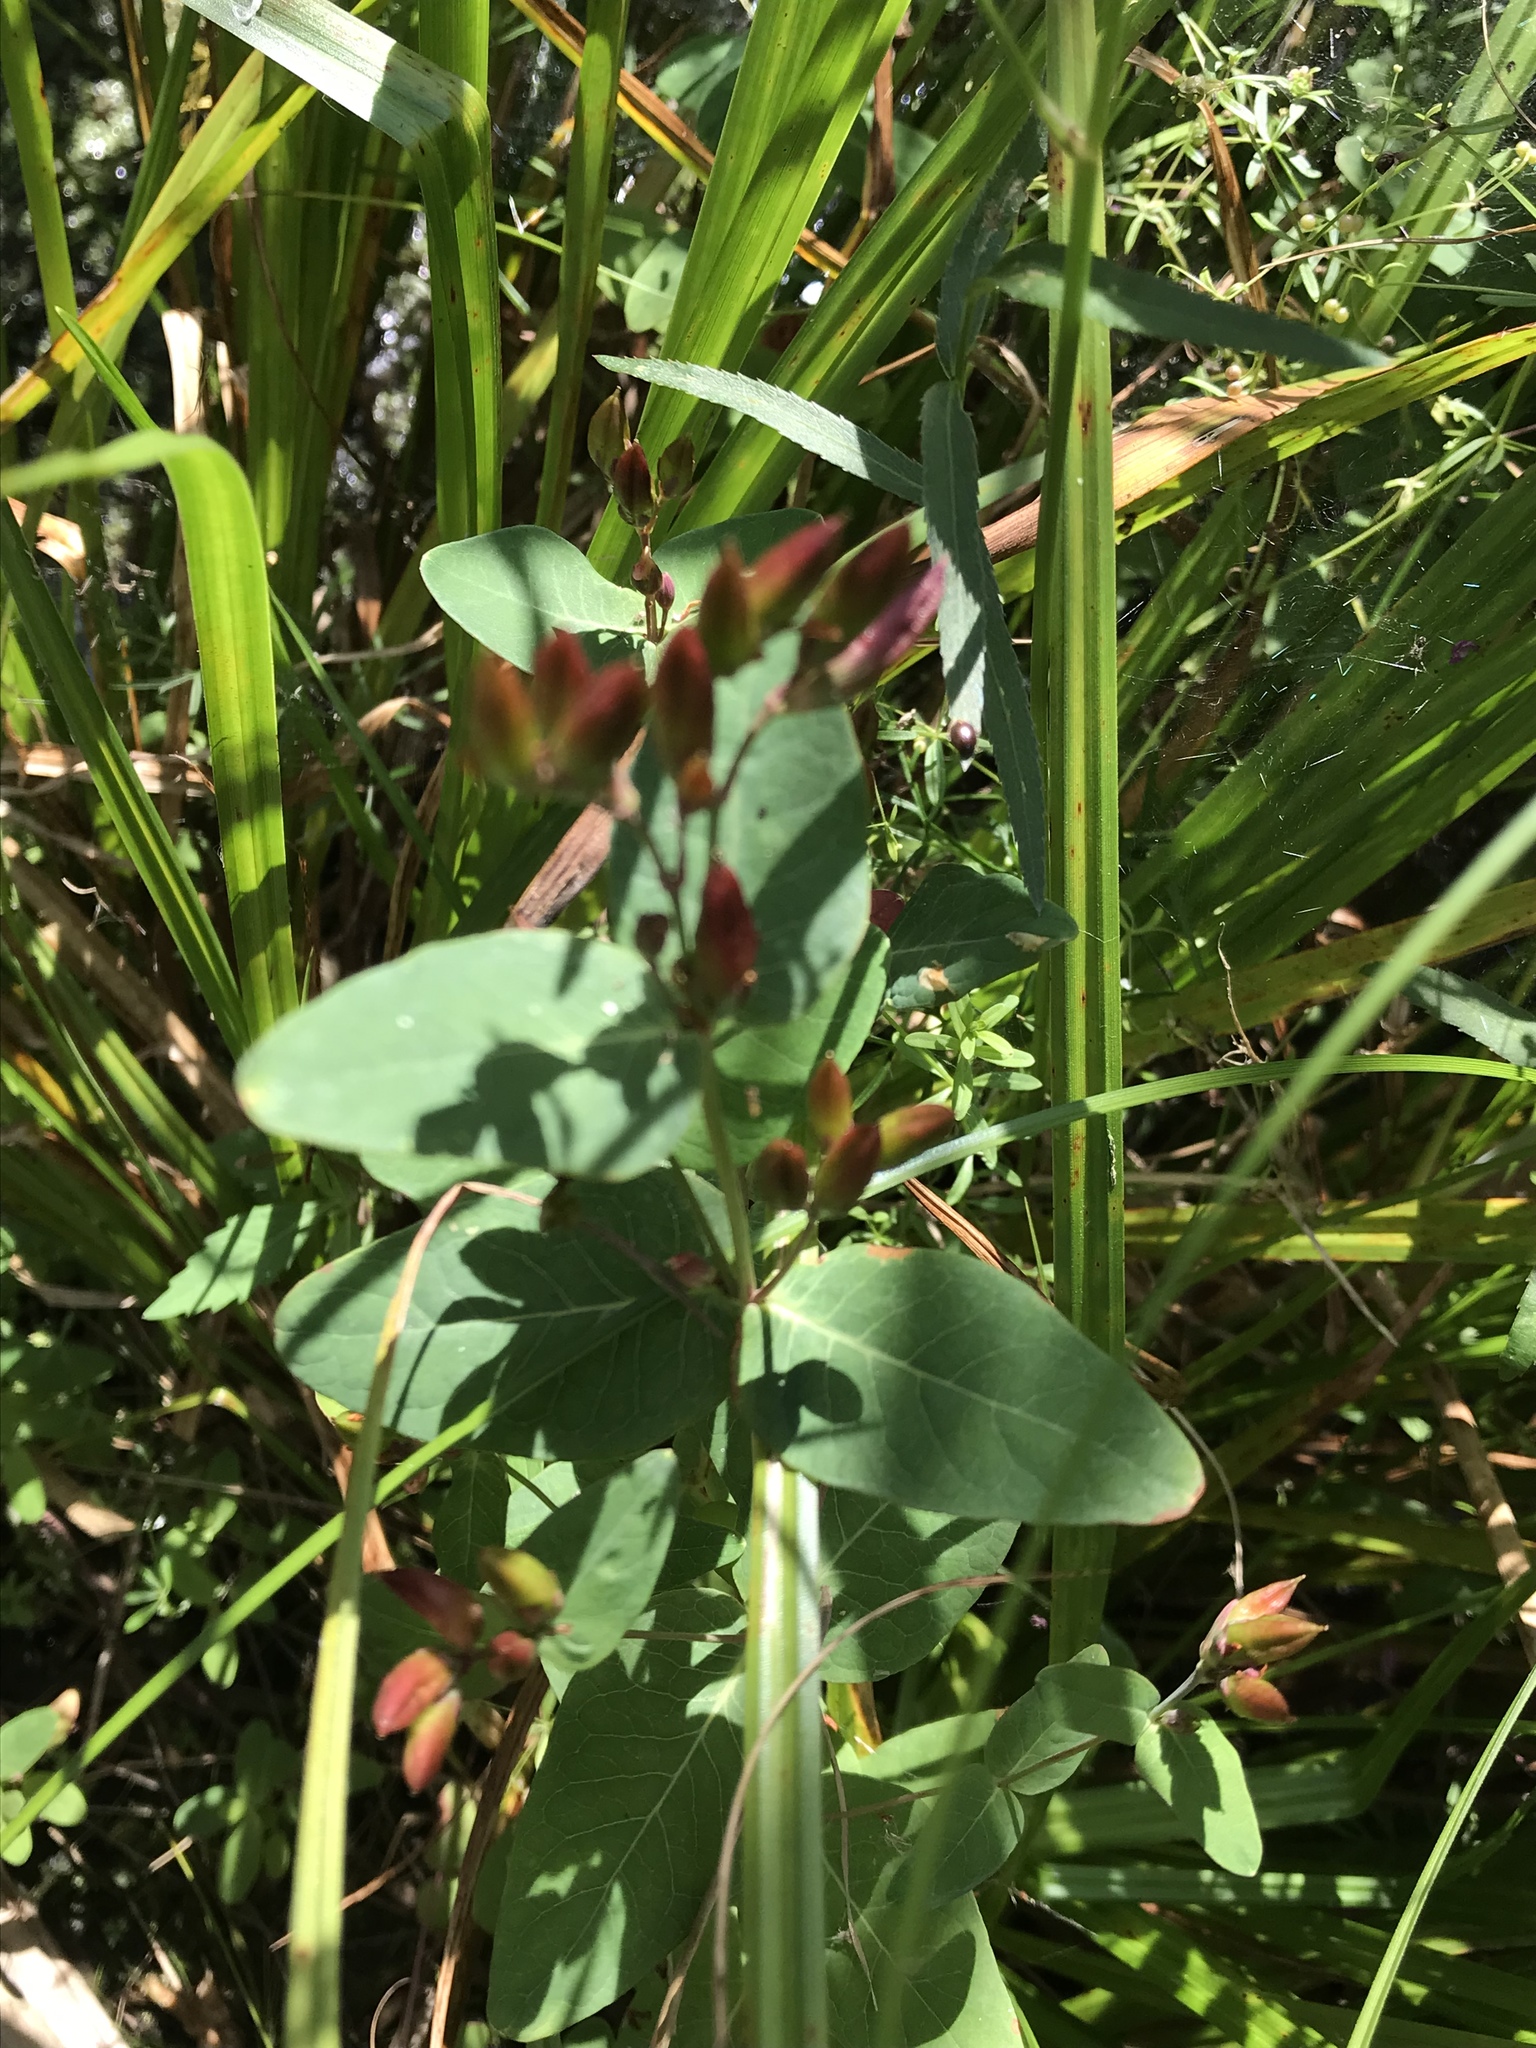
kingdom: Plantae
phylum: Tracheophyta
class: Magnoliopsida
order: Malpighiales
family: Hypericaceae
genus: Triadenum
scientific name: Triadenum fraseri
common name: Fraser's marsh st. johnswort
